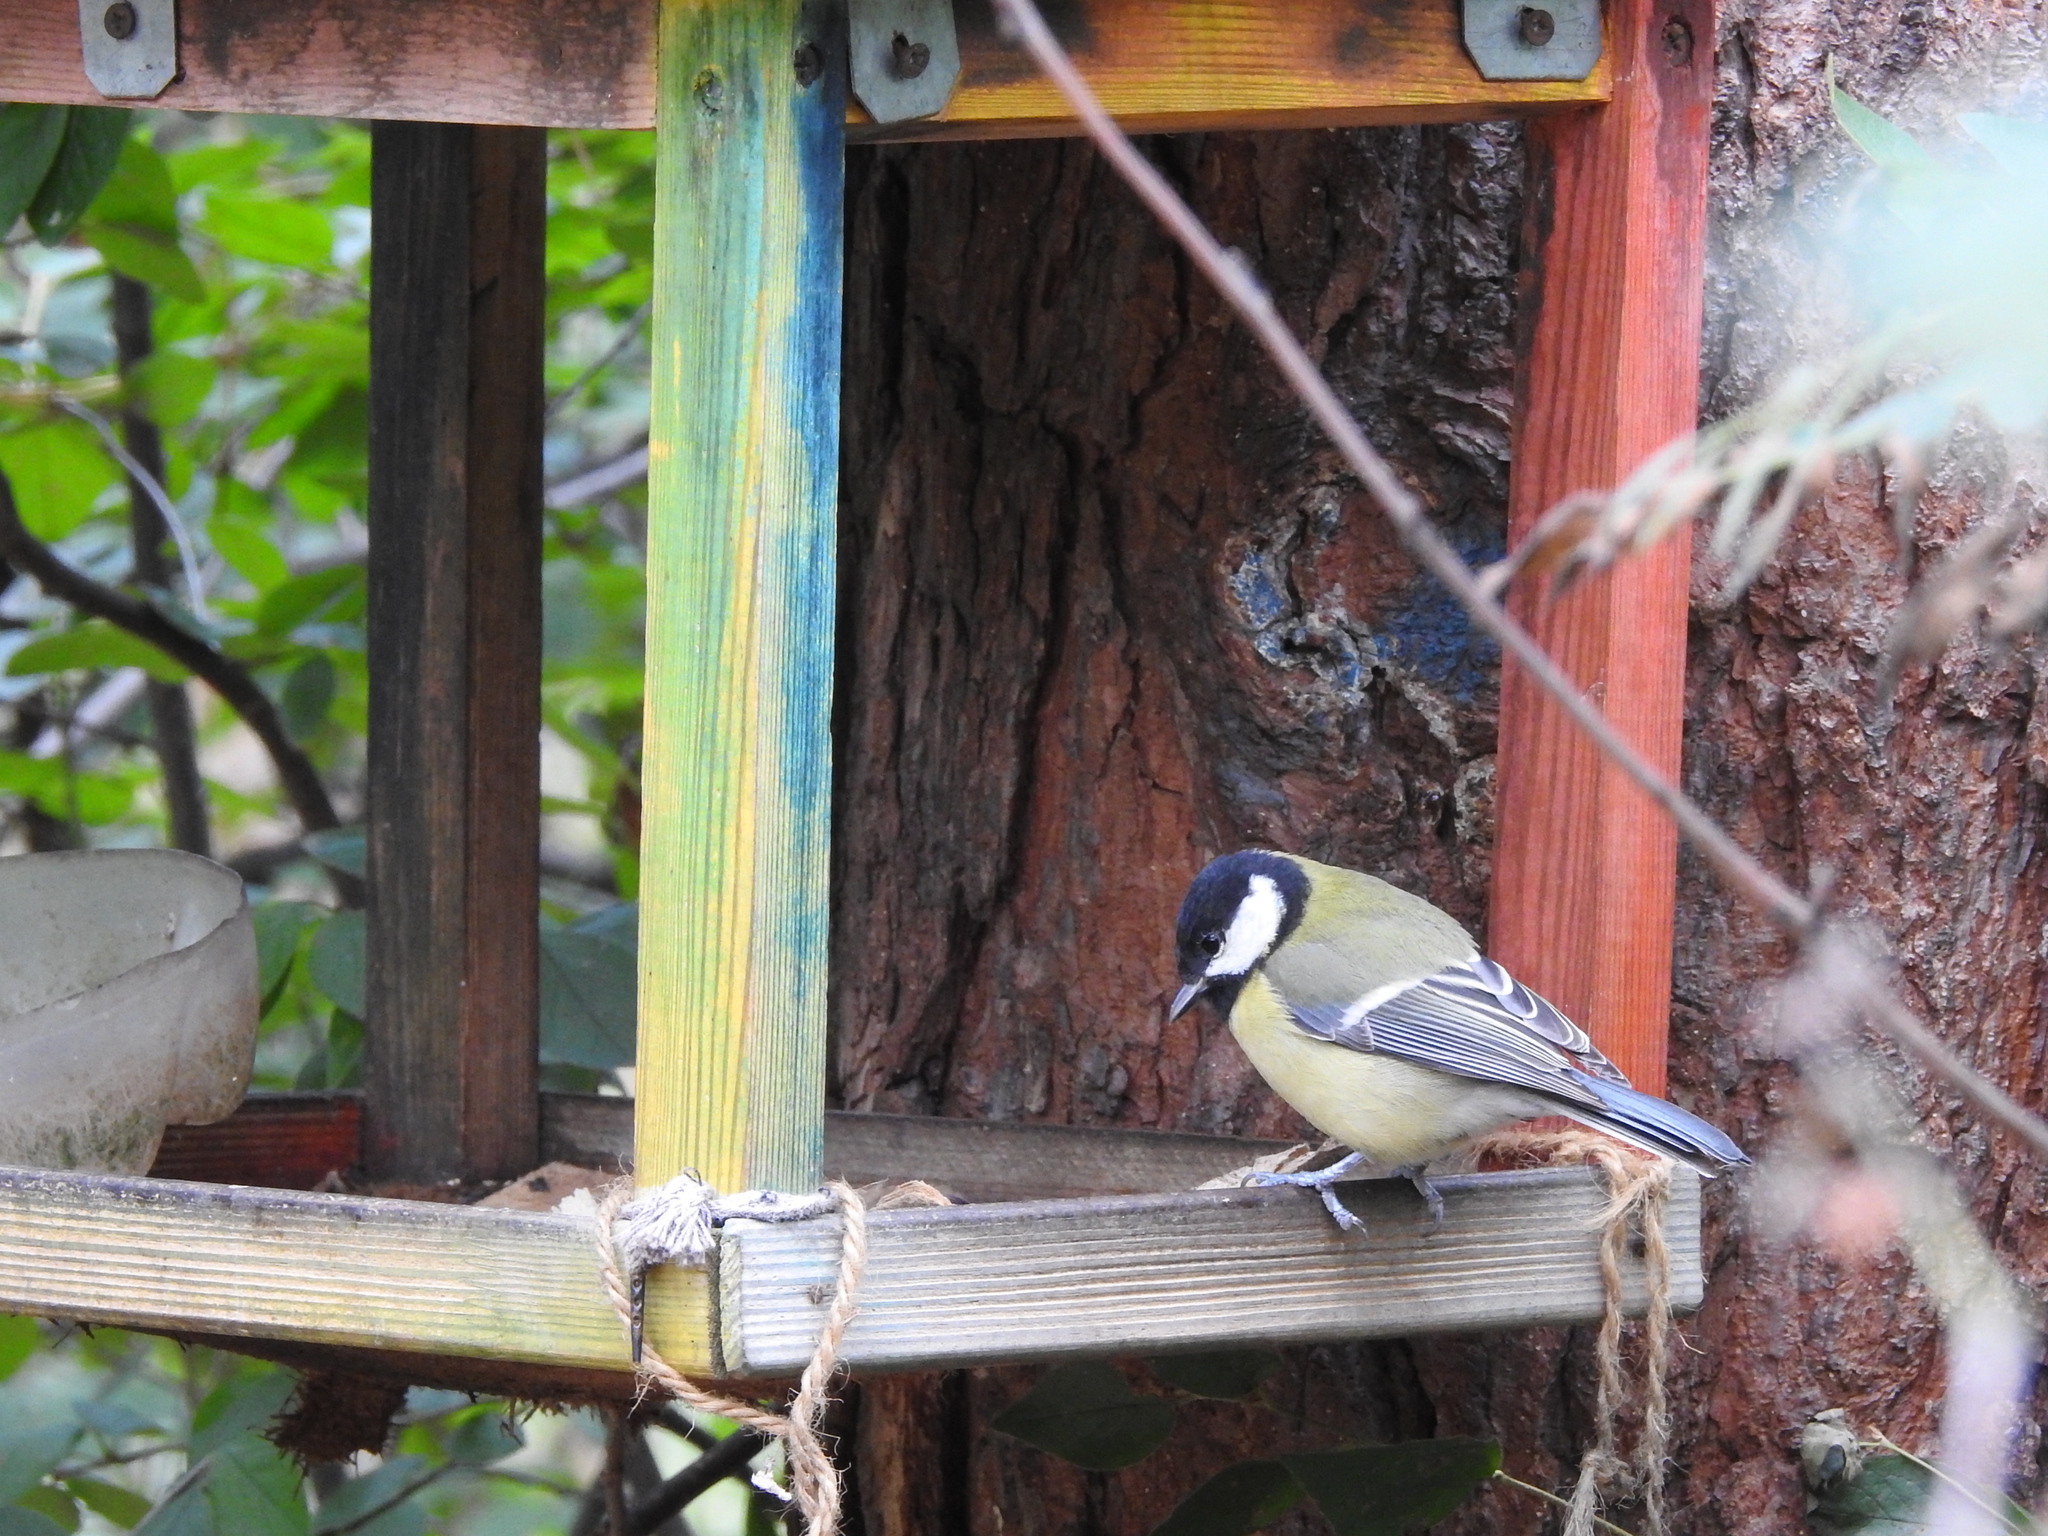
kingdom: Animalia
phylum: Chordata
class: Aves
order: Passeriformes
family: Paridae
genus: Parus
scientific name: Parus major
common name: Great tit
